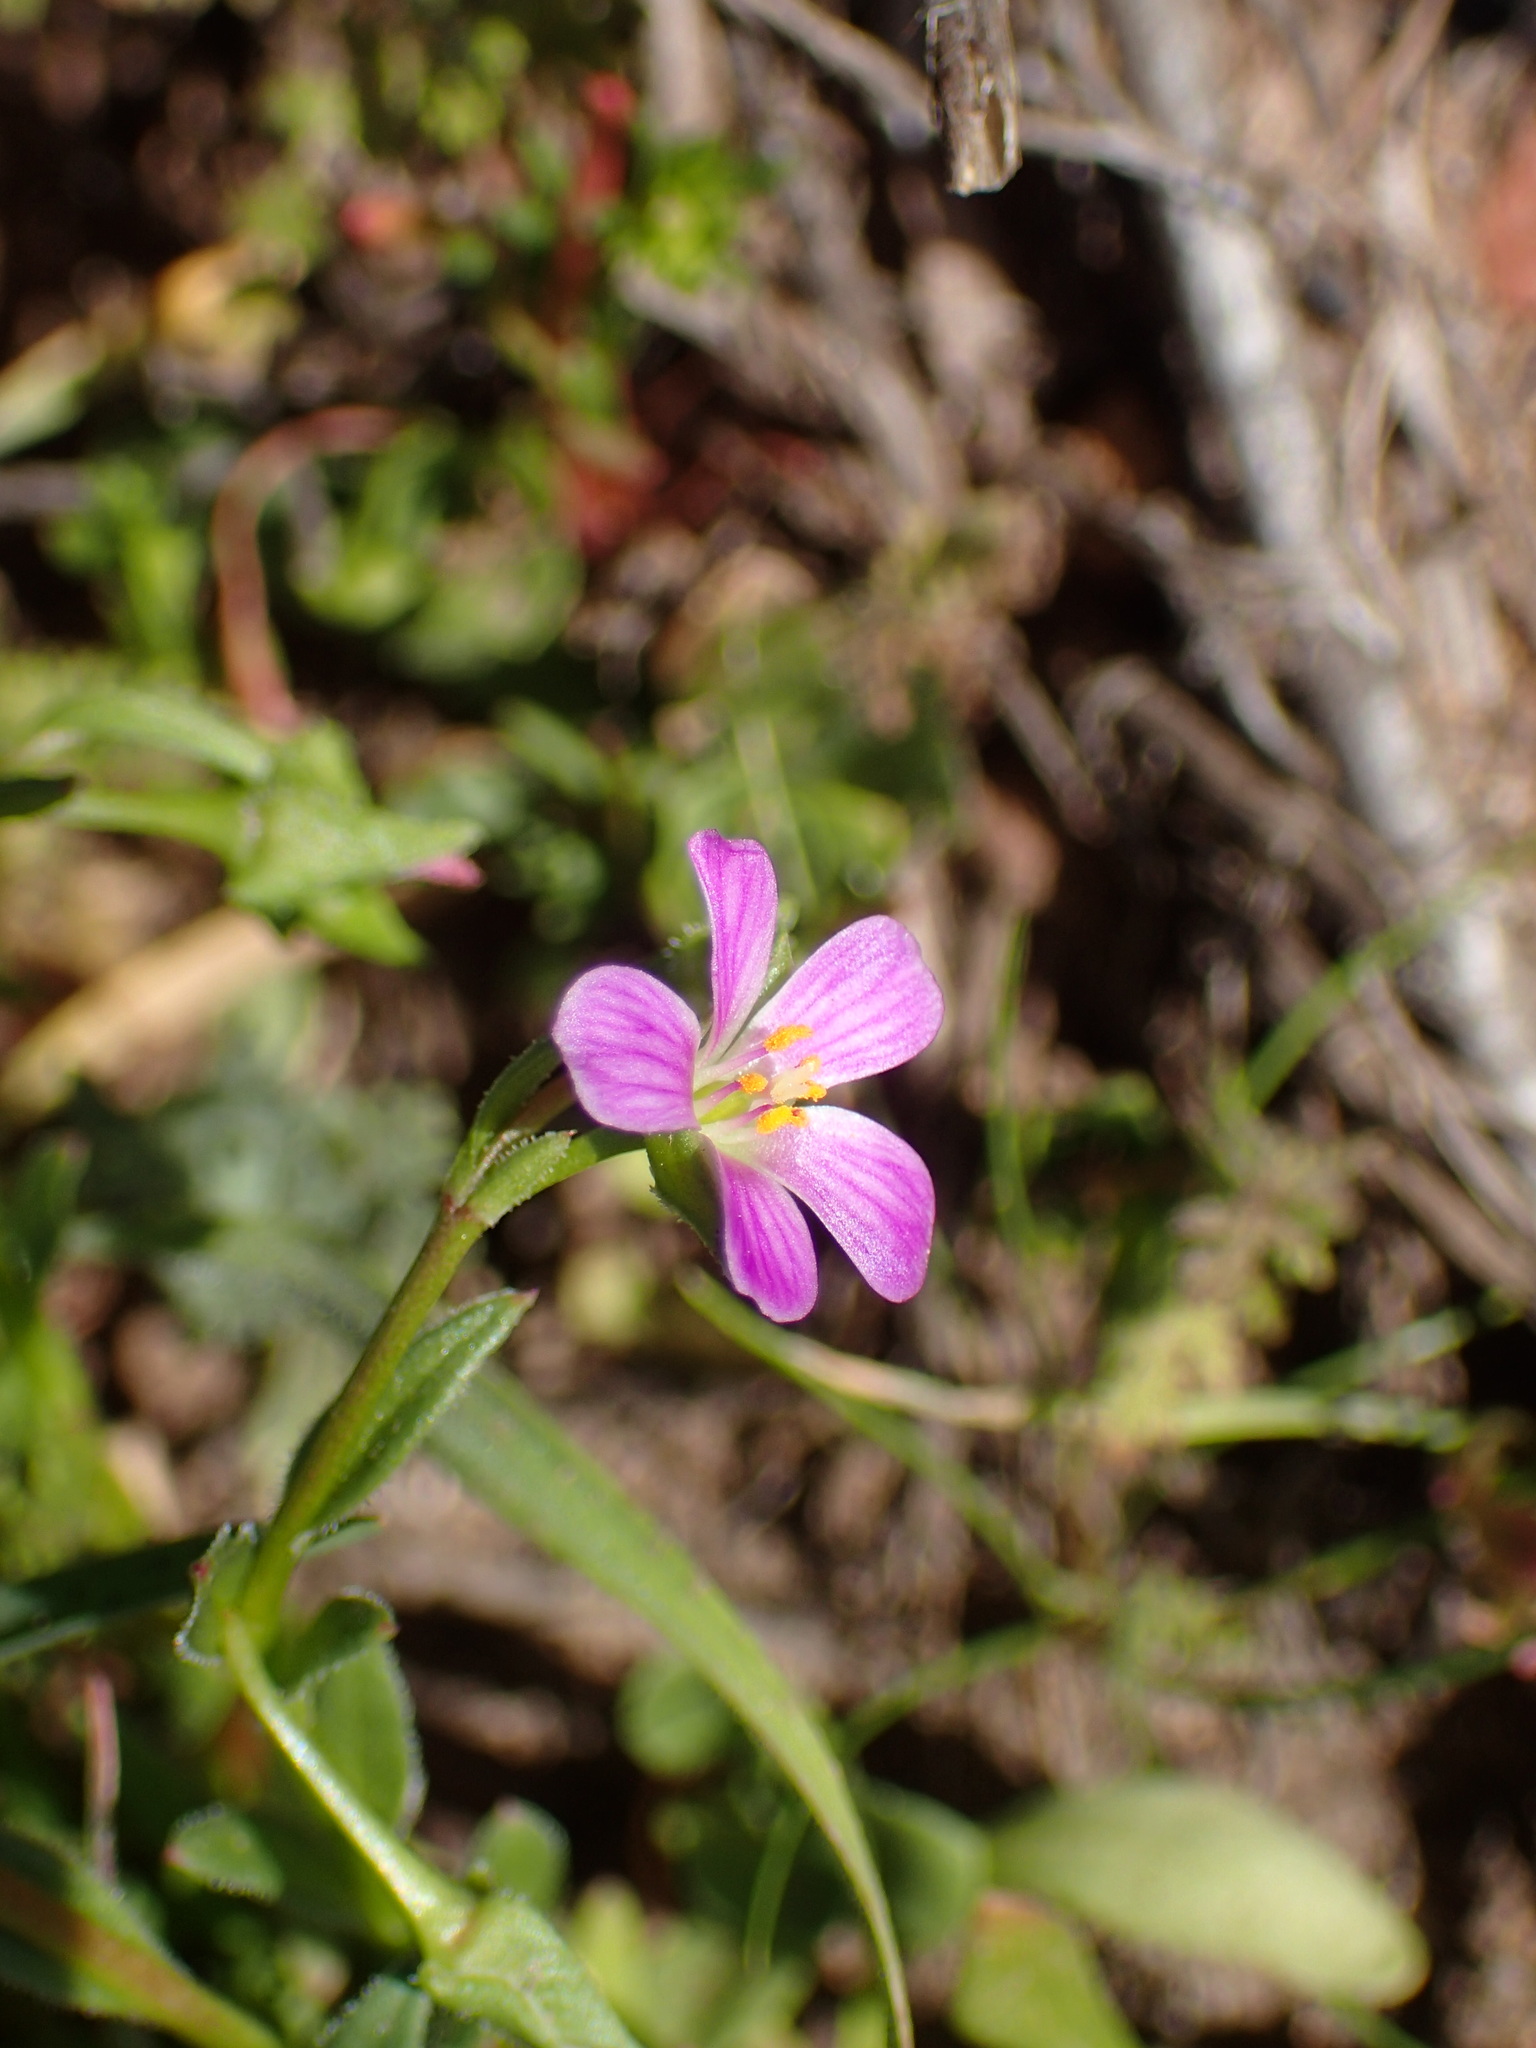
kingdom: Plantae
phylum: Tracheophyta
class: Magnoliopsida
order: Caryophyllales
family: Montiaceae
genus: Calandrinia
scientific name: Calandrinia breweri
